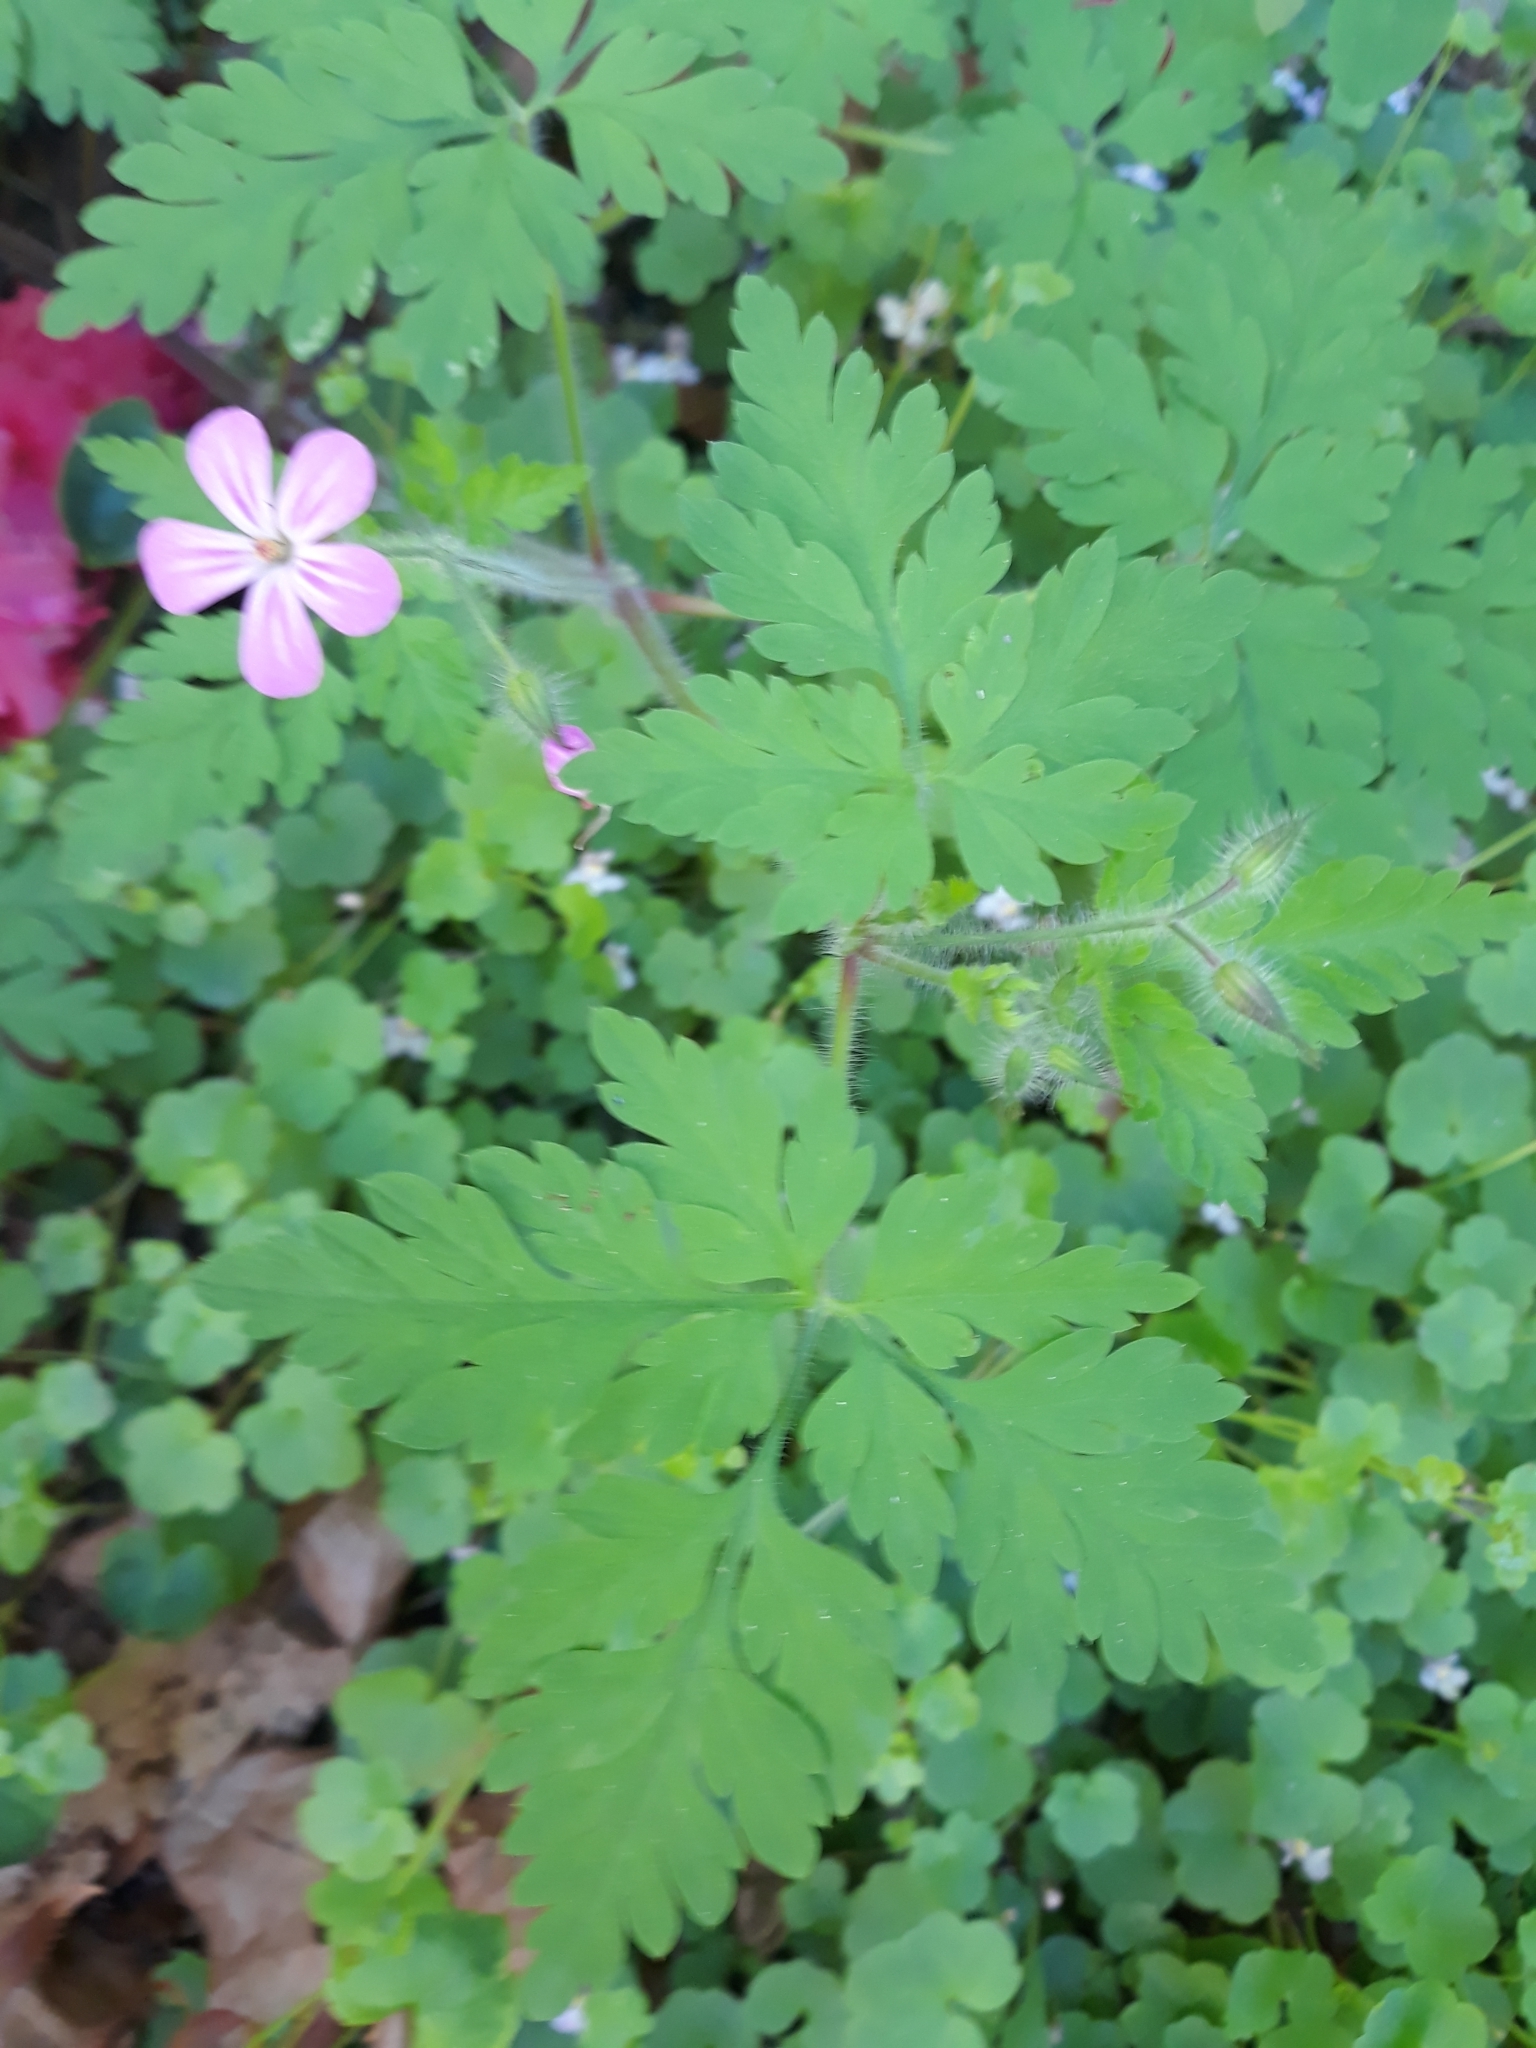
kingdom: Plantae
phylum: Tracheophyta
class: Magnoliopsida
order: Geraniales
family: Geraniaceae
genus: Geranium
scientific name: Geranium robertianum
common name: Herb-robert
